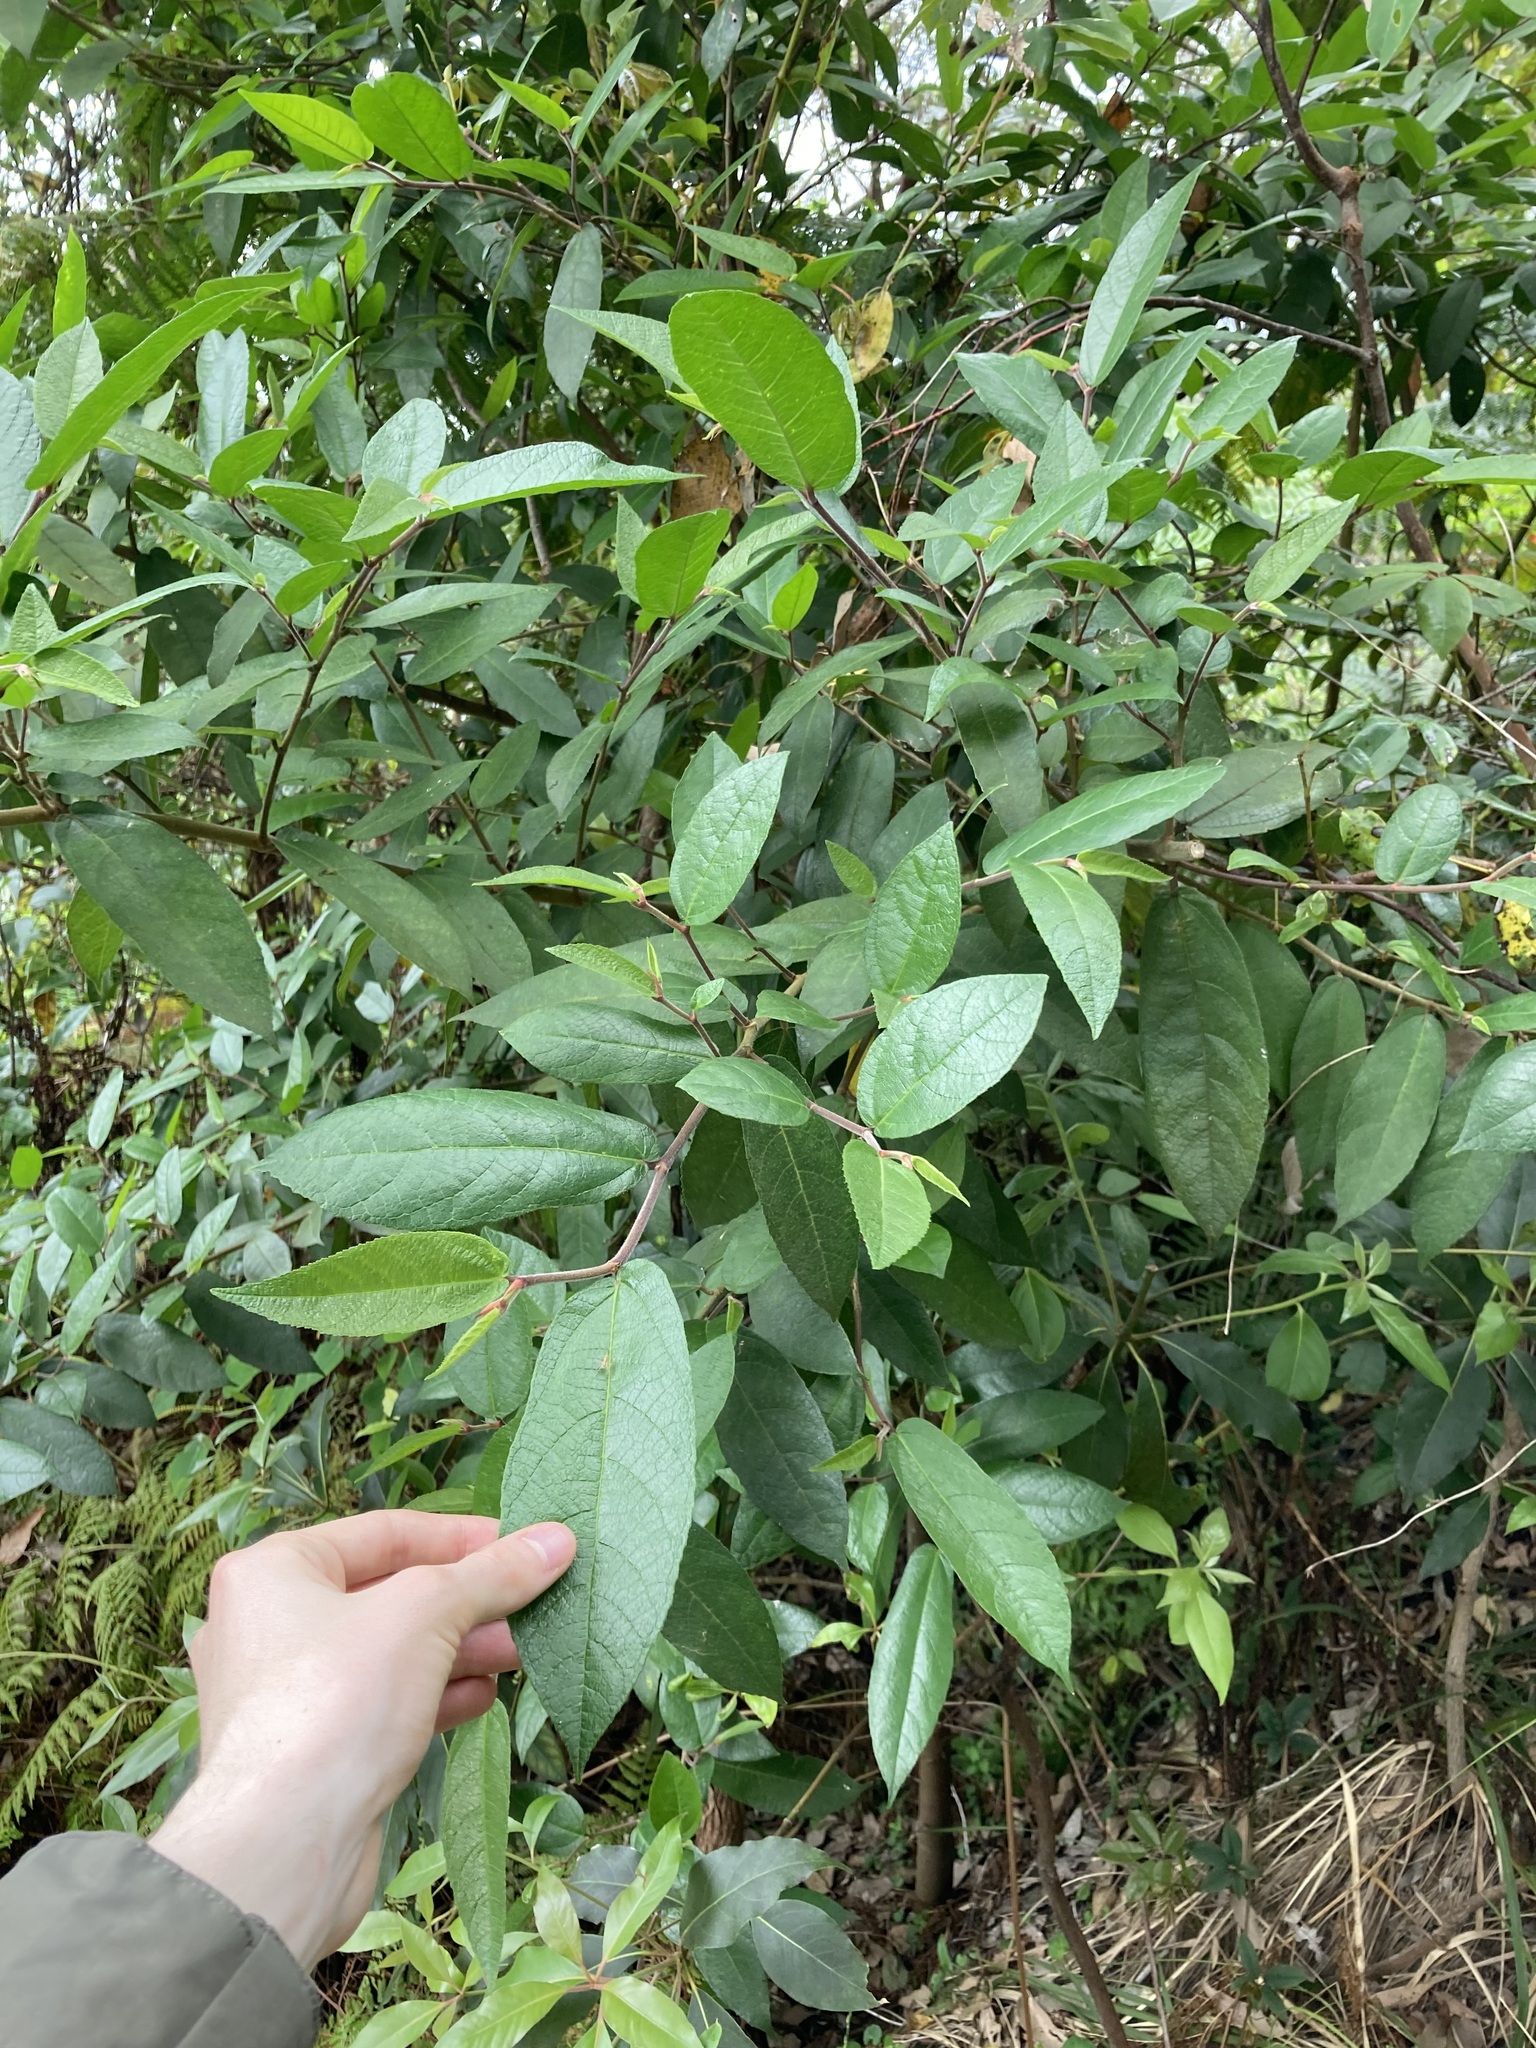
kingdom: Plantae
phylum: Tracheophyta
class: Magnoliopsida
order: Rosales
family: Moraceae
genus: Ficus
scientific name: Ficus coronata
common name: Creek sandpaper fig
